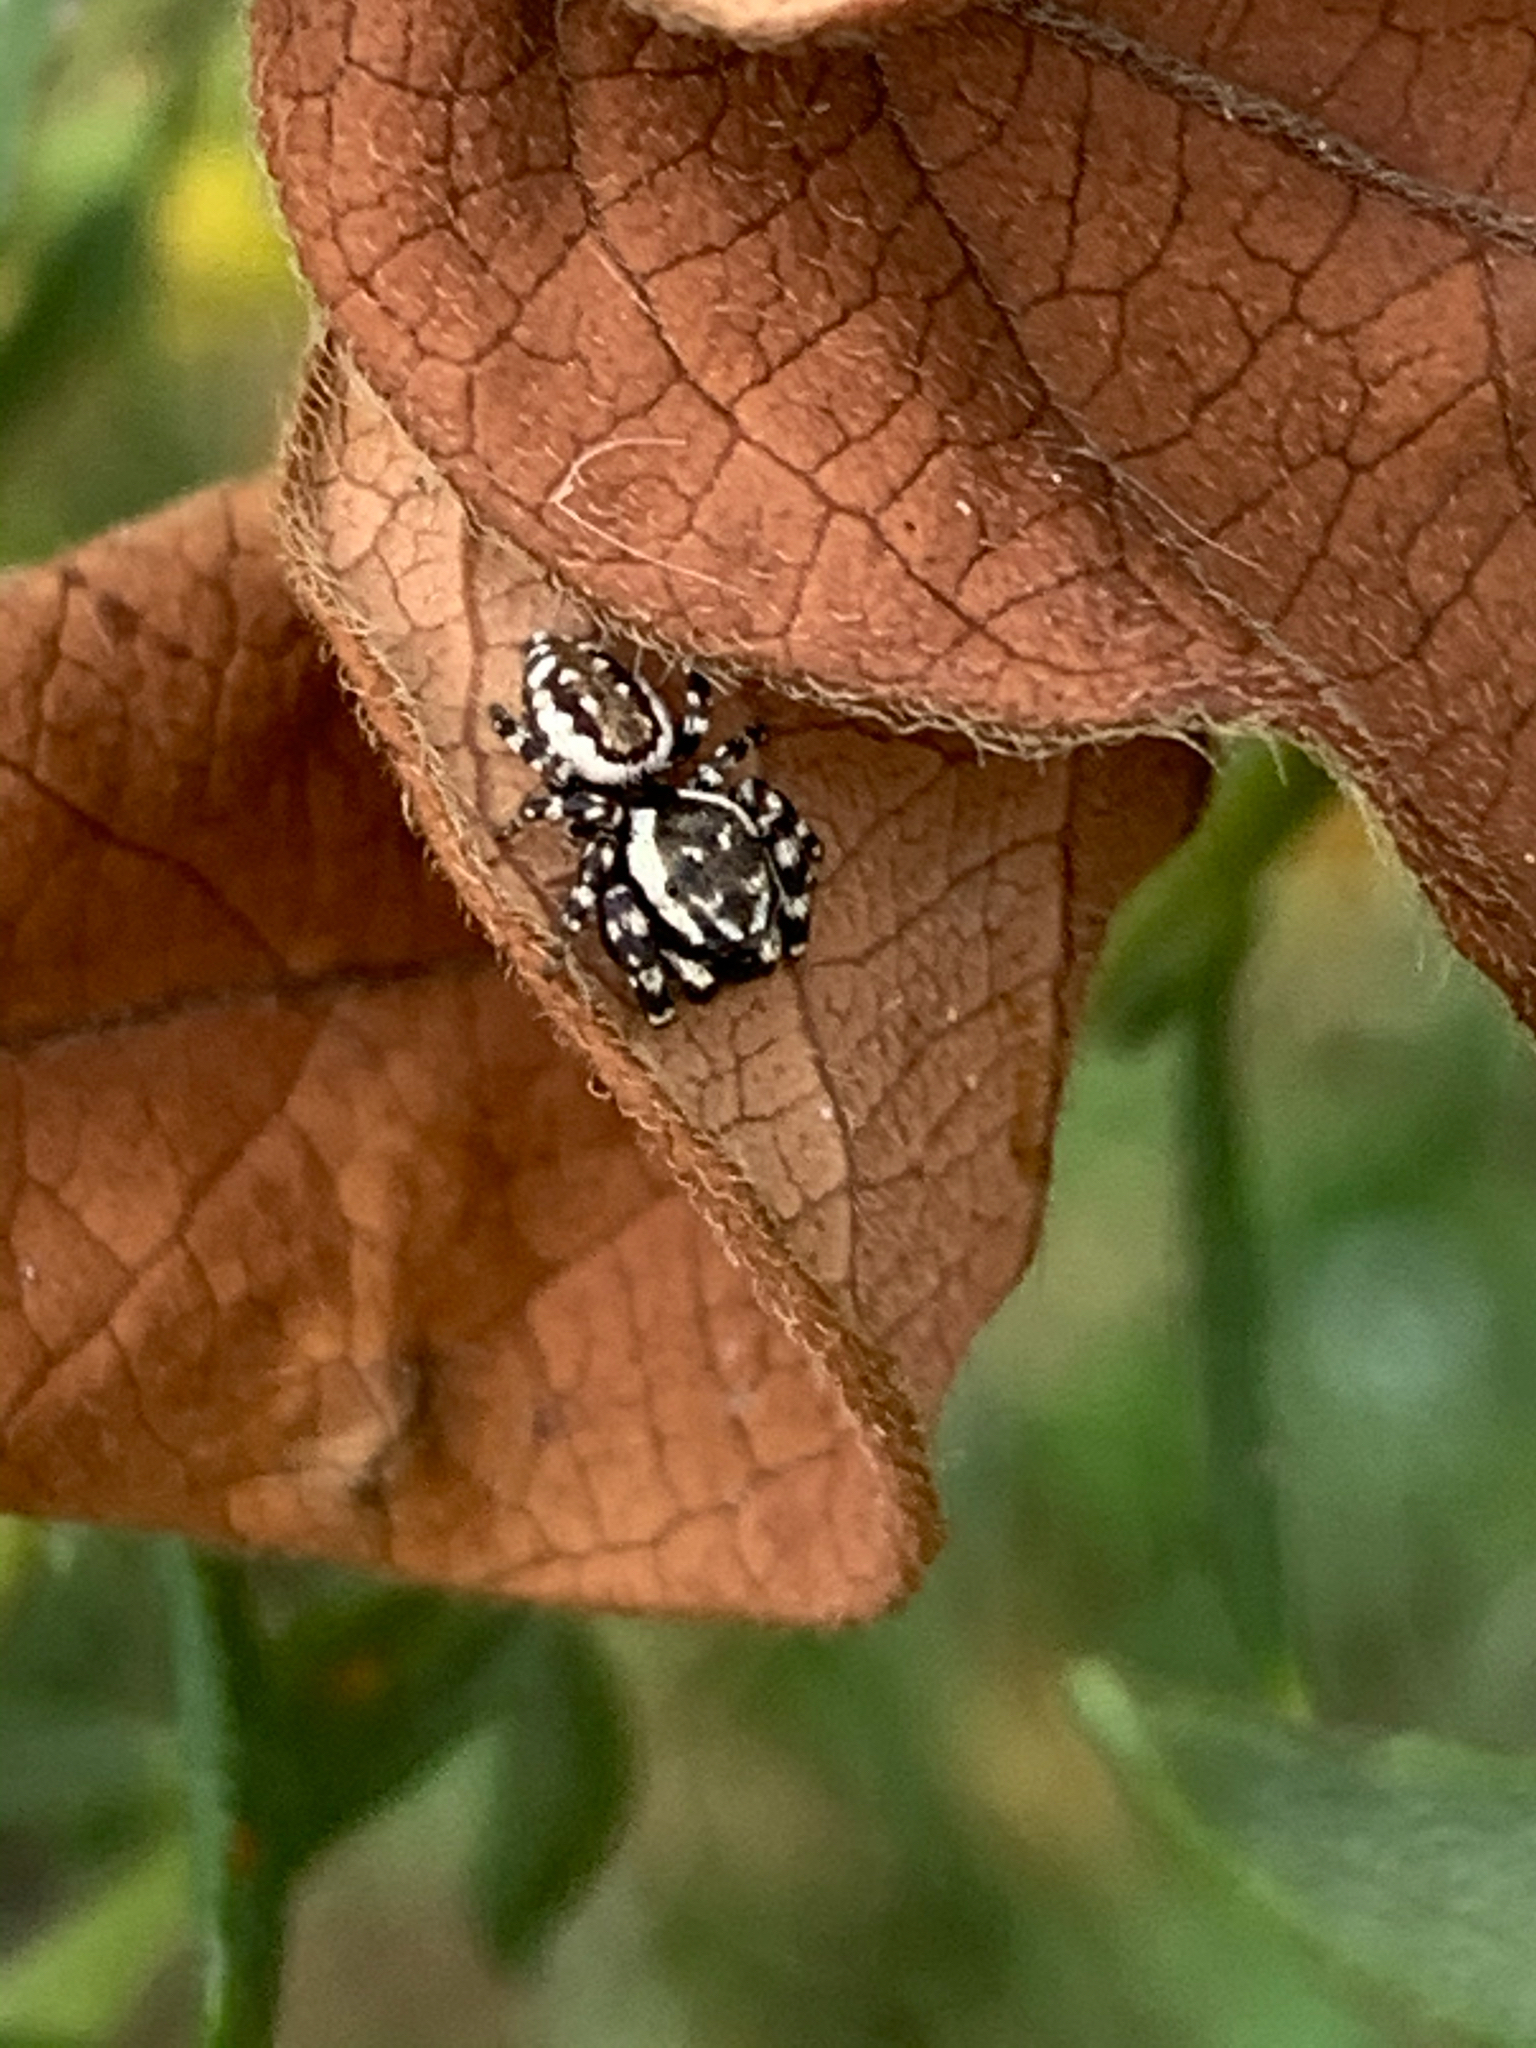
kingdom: Animalia
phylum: Arthropoda
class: Arachnida
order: Araneae
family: Salticidae
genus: Pelegrina
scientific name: Pelegrina galathea
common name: Jumping spiders
